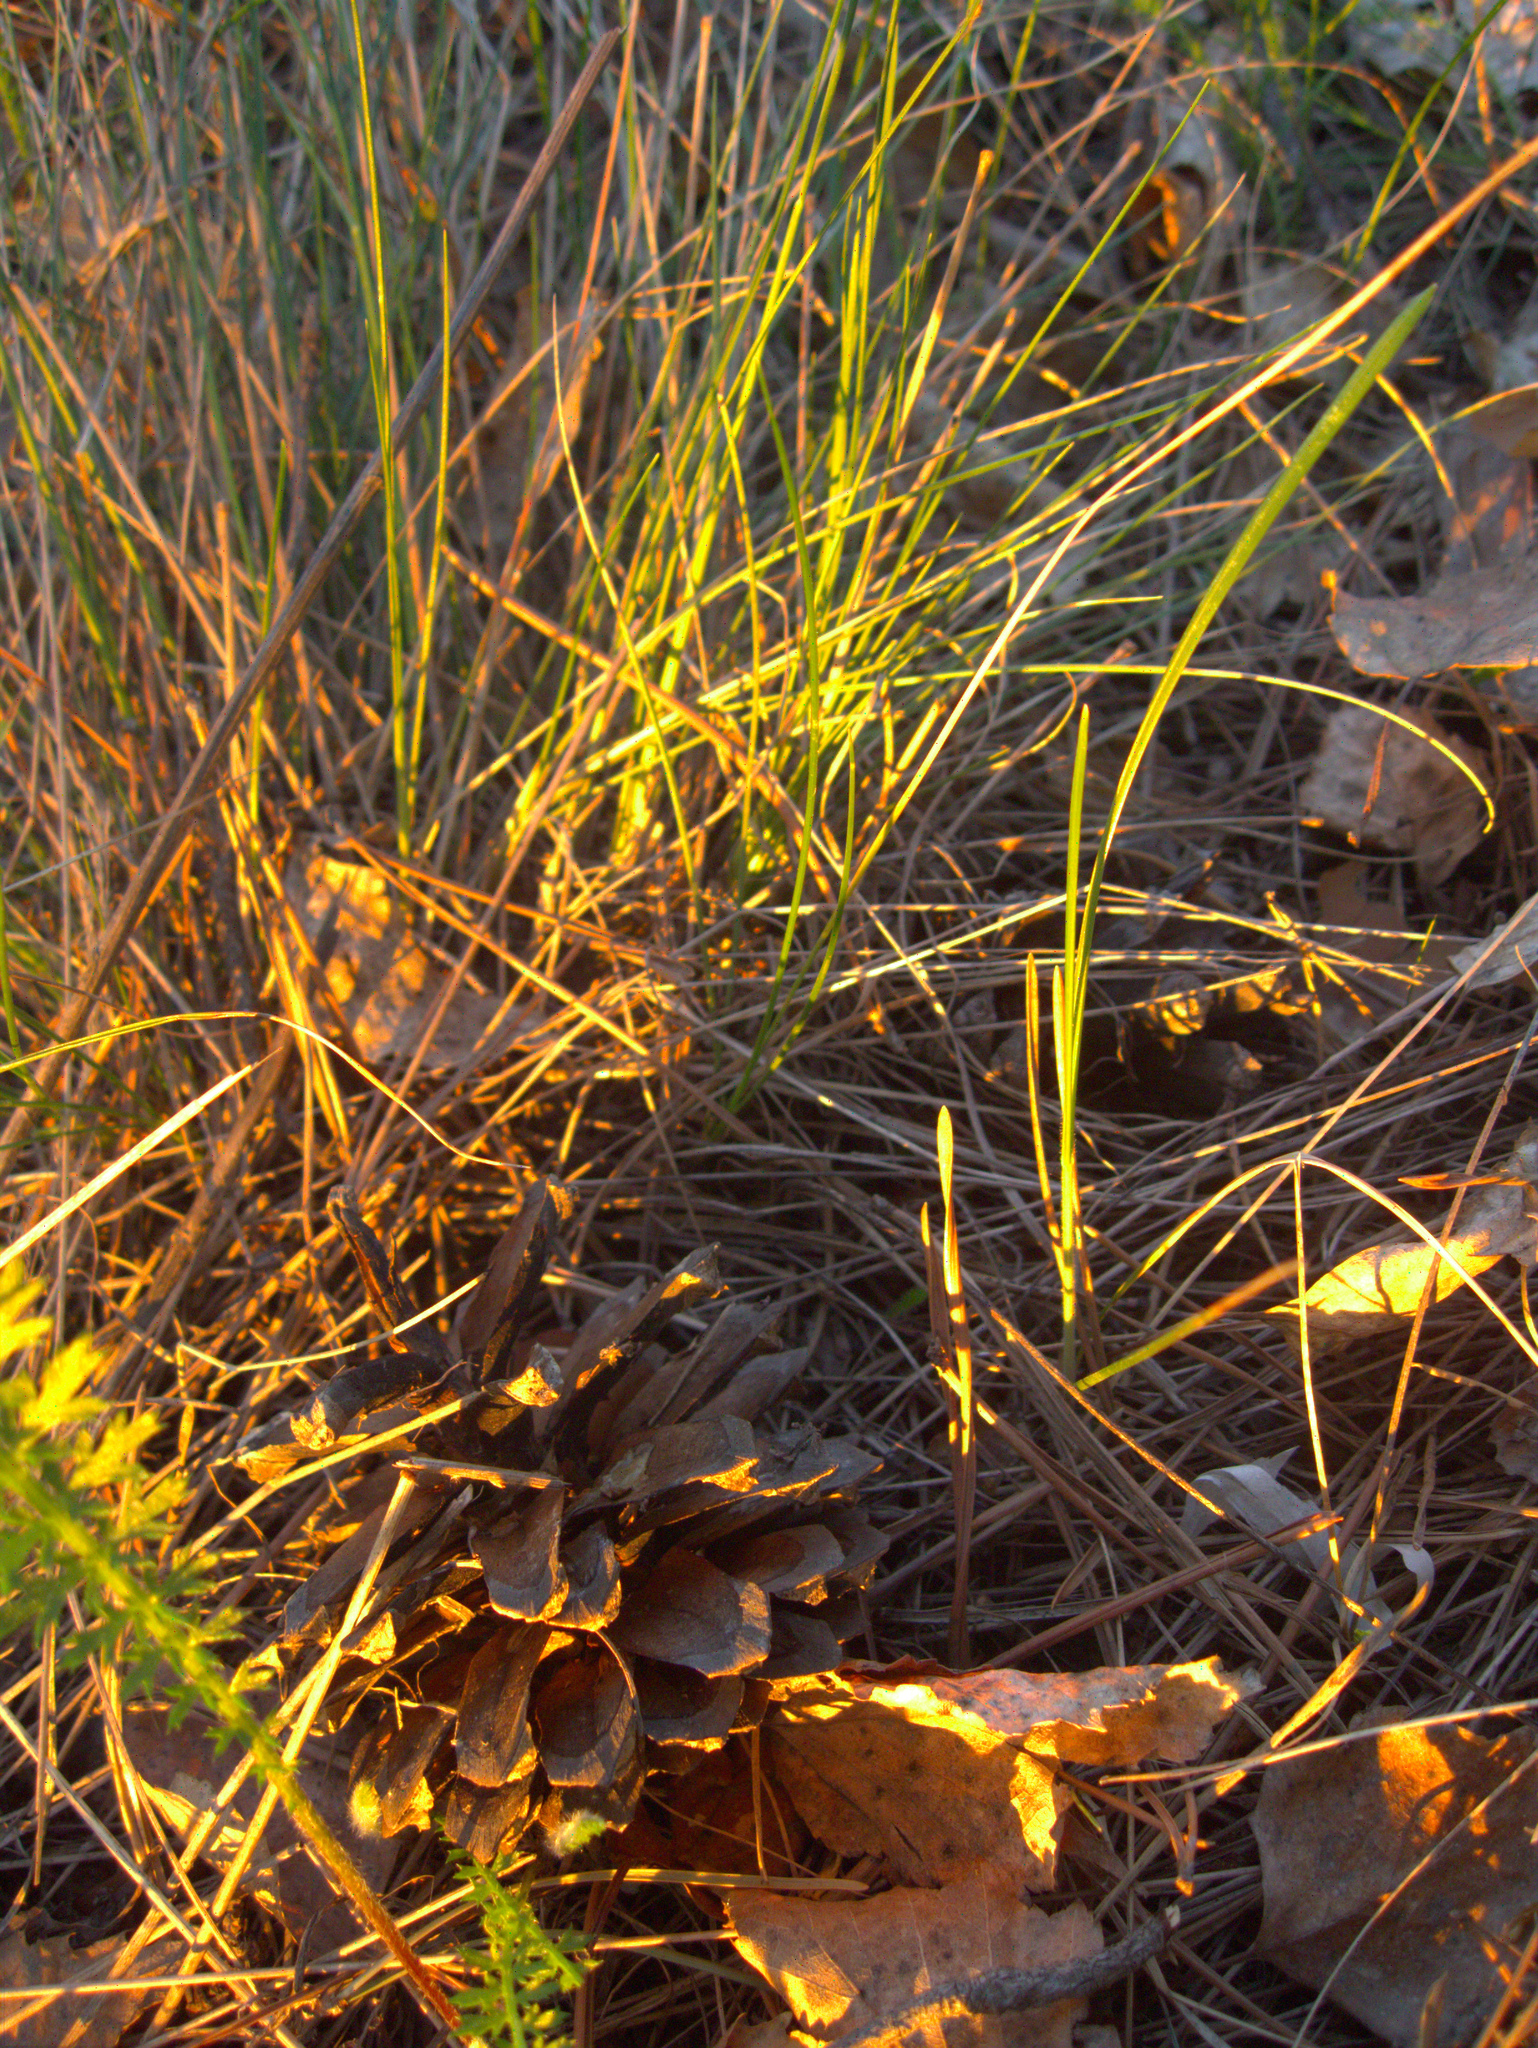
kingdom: Plantae
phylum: Tracheophyta
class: Pinopsida
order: Pinales
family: Pinaceae
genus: Pinus
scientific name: Pinus sylvestris
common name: Scots pine
